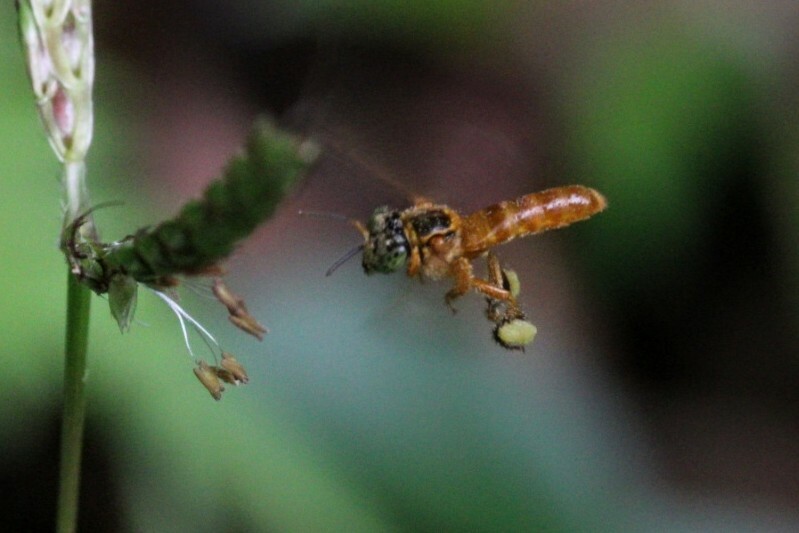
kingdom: Animalia
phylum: Arthropoda
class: Insecta
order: Hymenoptera
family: Apidae
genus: Tetragonisca
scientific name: Tetragonisca angustula
